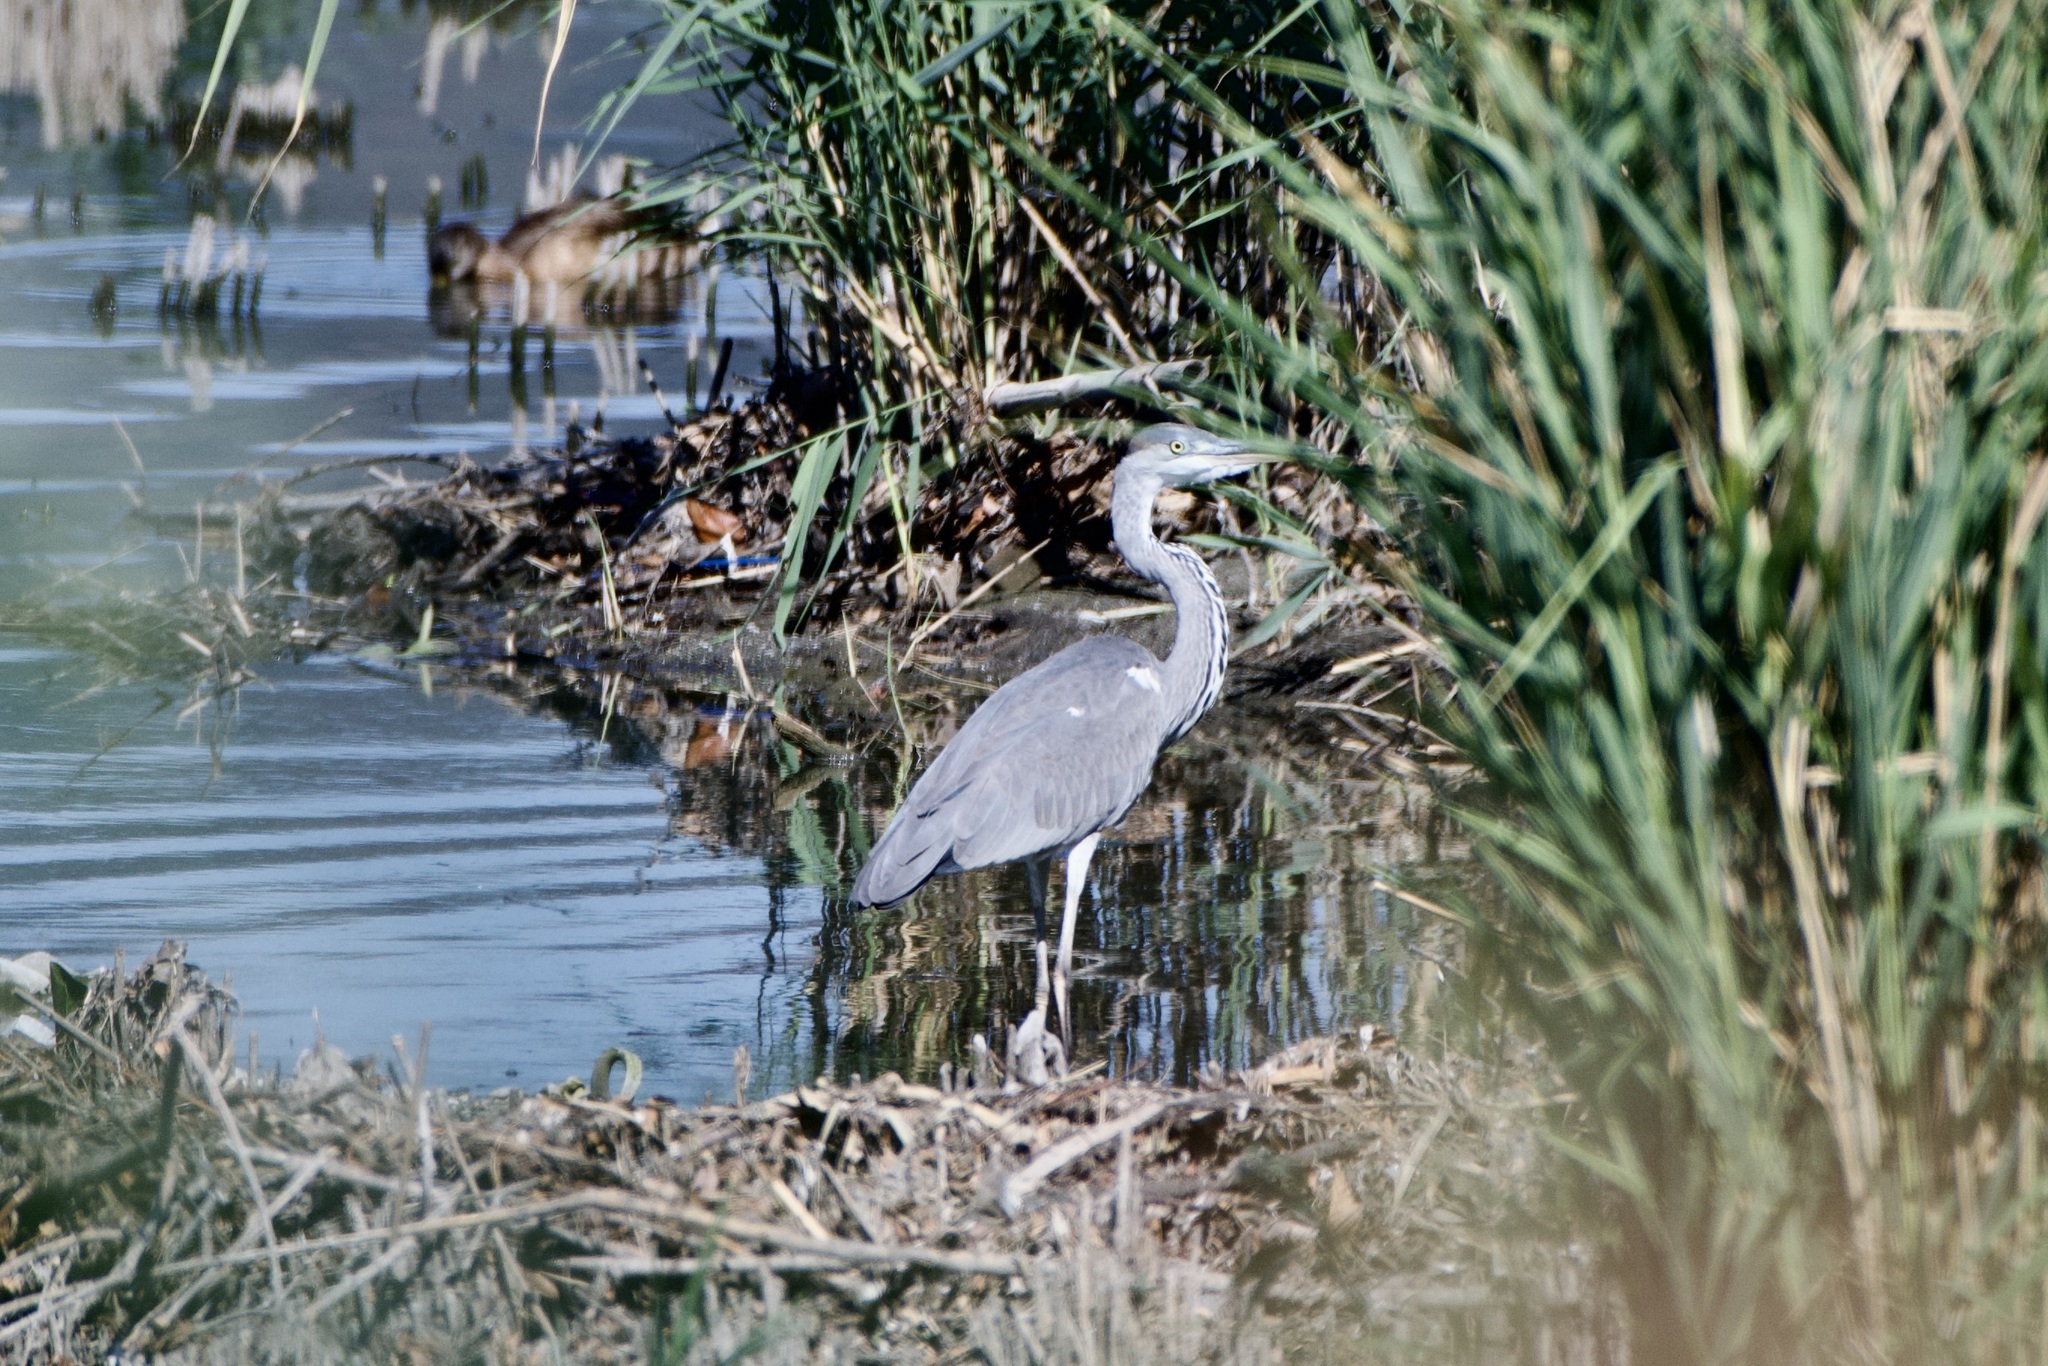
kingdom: Animalia
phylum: Chordata
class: Aves
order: Pelecaniformes
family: Ardeidae
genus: Ardea
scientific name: Ardea cinerea
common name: Grey heron
